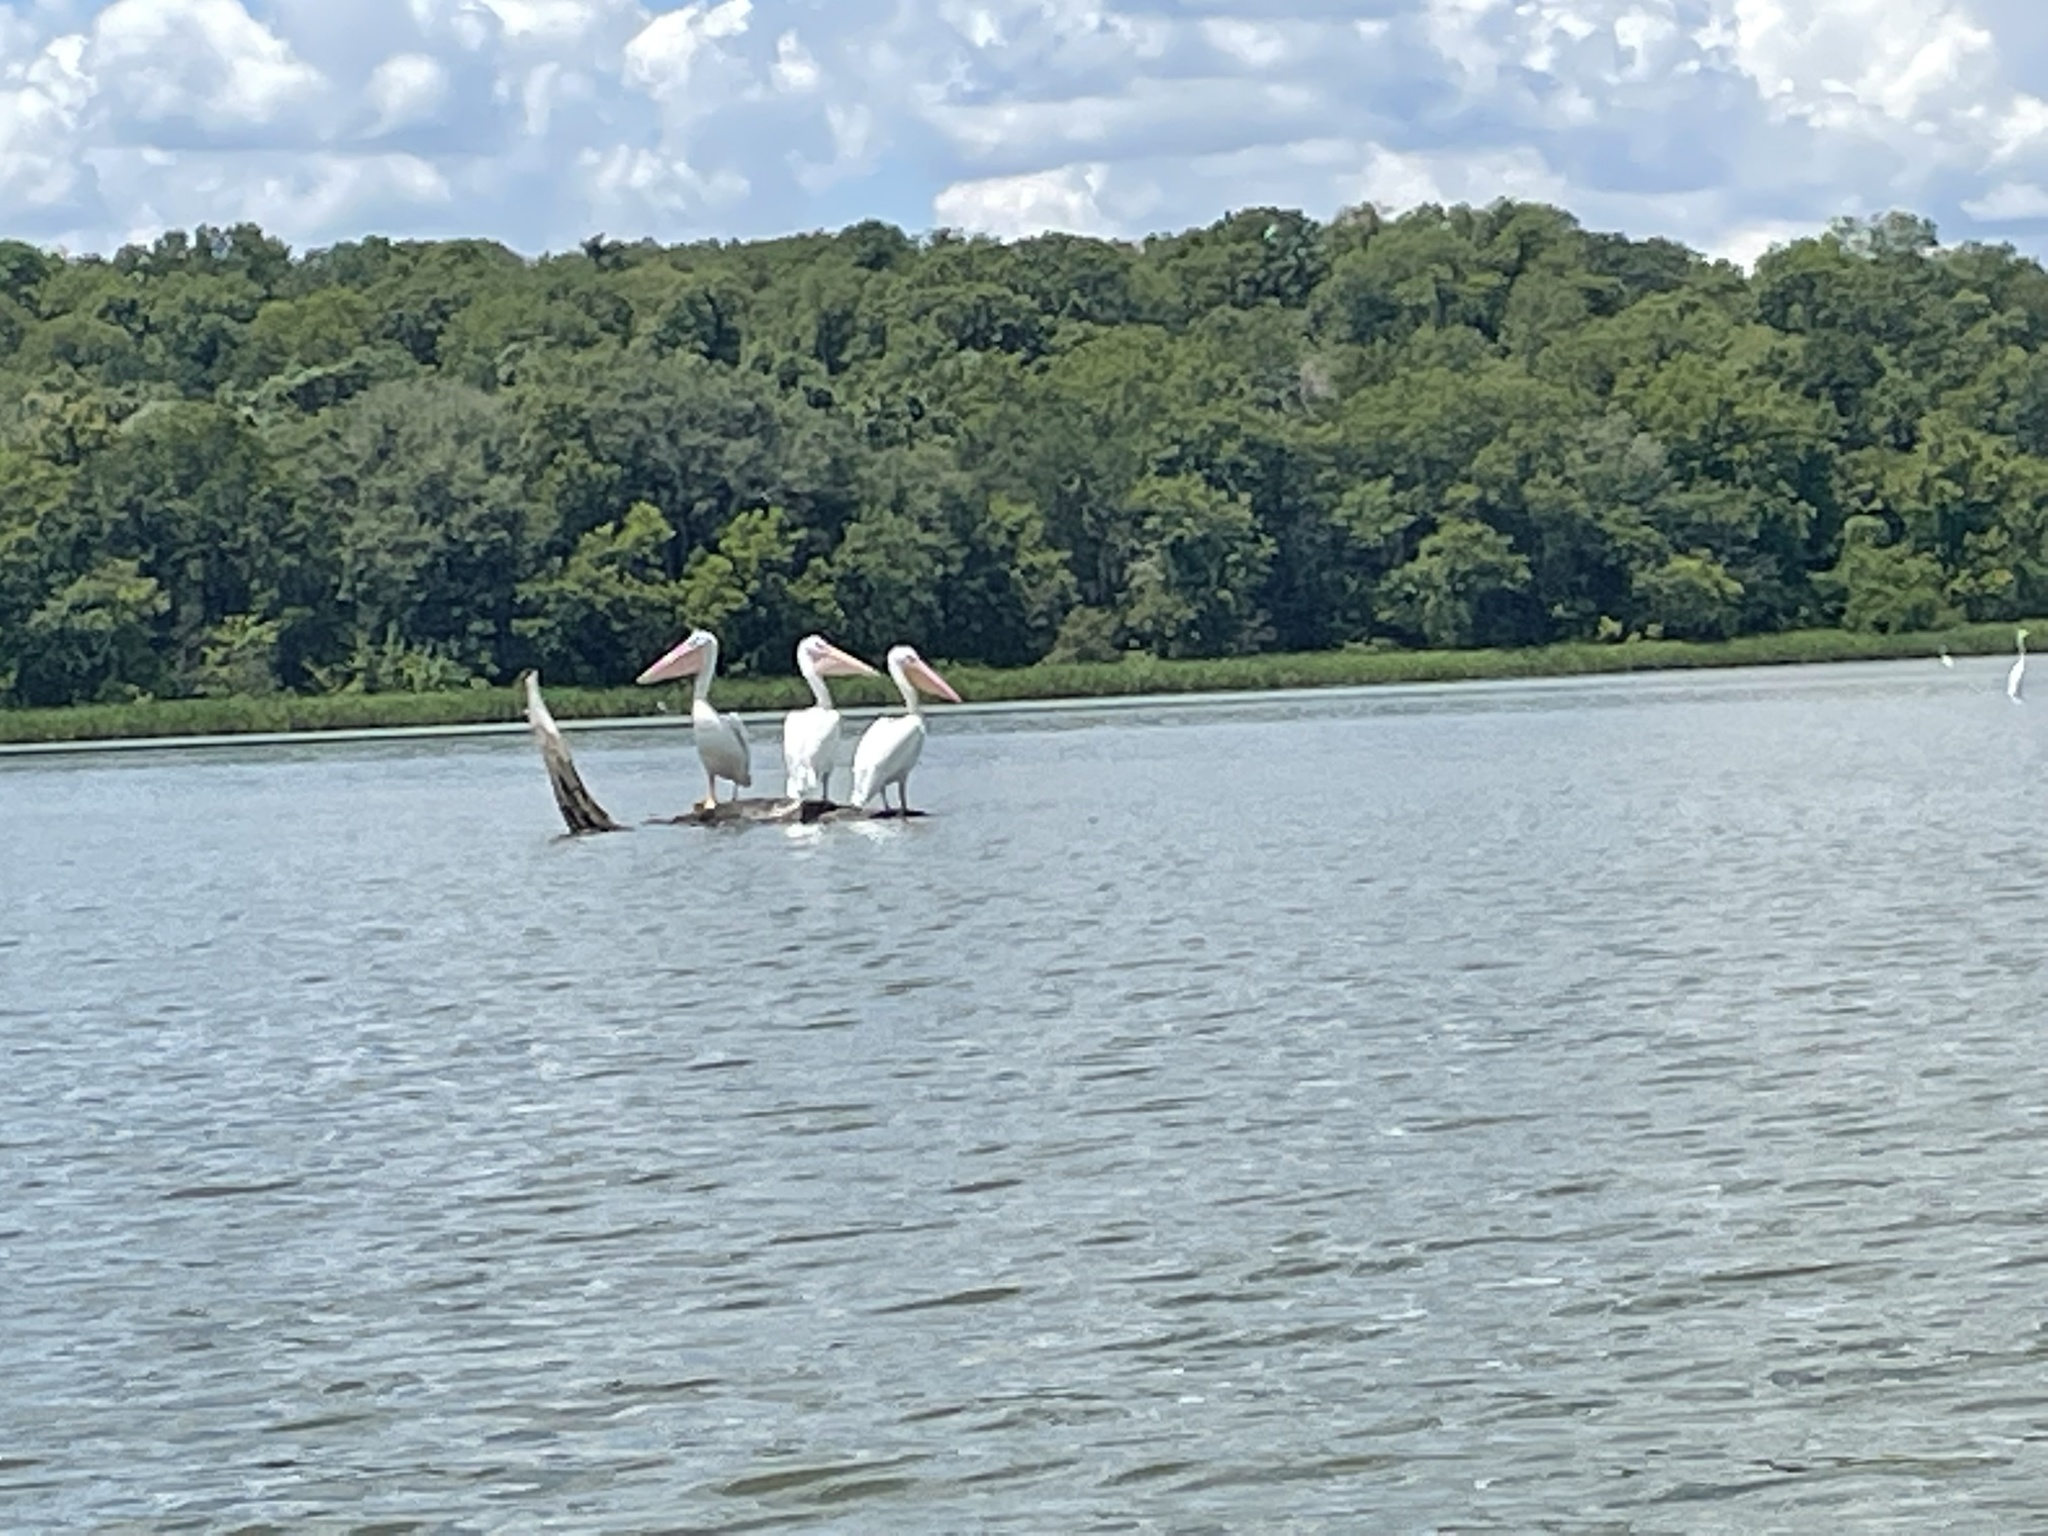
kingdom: Animalia
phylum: Chordata
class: Aves
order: Pelecaniformes
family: Pelecanidae
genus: Pelecanus
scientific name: Pelecanus erythrorhynchos
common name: American white pelican
